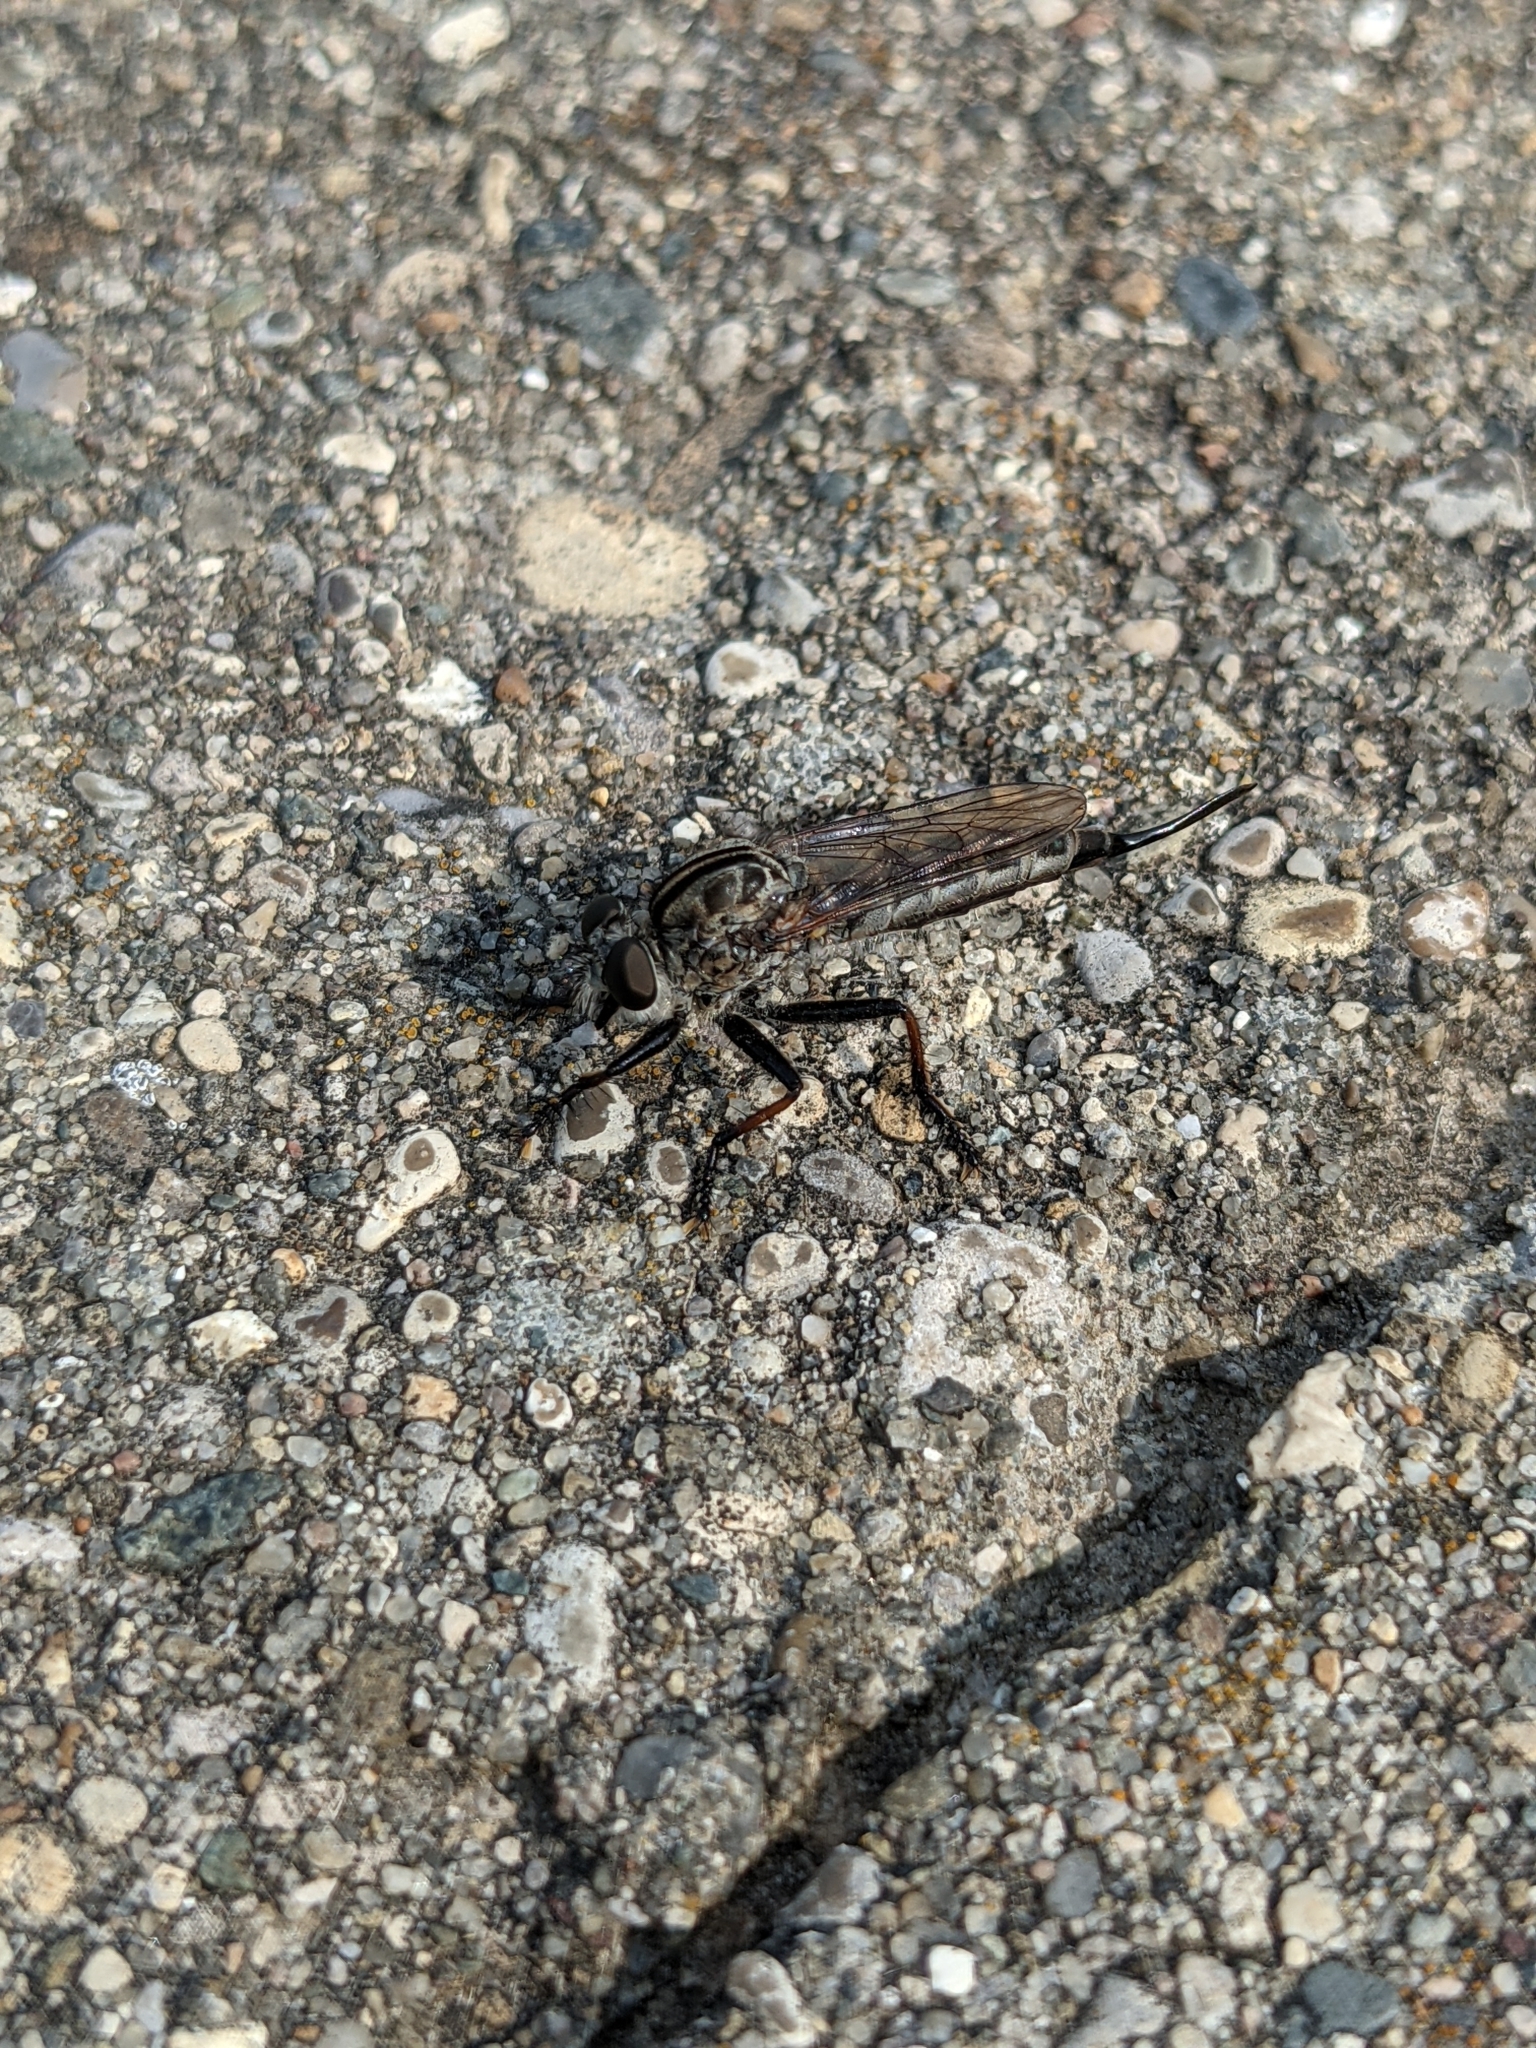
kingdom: Animalia
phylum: Arthropoda
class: Insecta
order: Diptera
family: Asilidae
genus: Efferia
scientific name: Efferia aestuans
